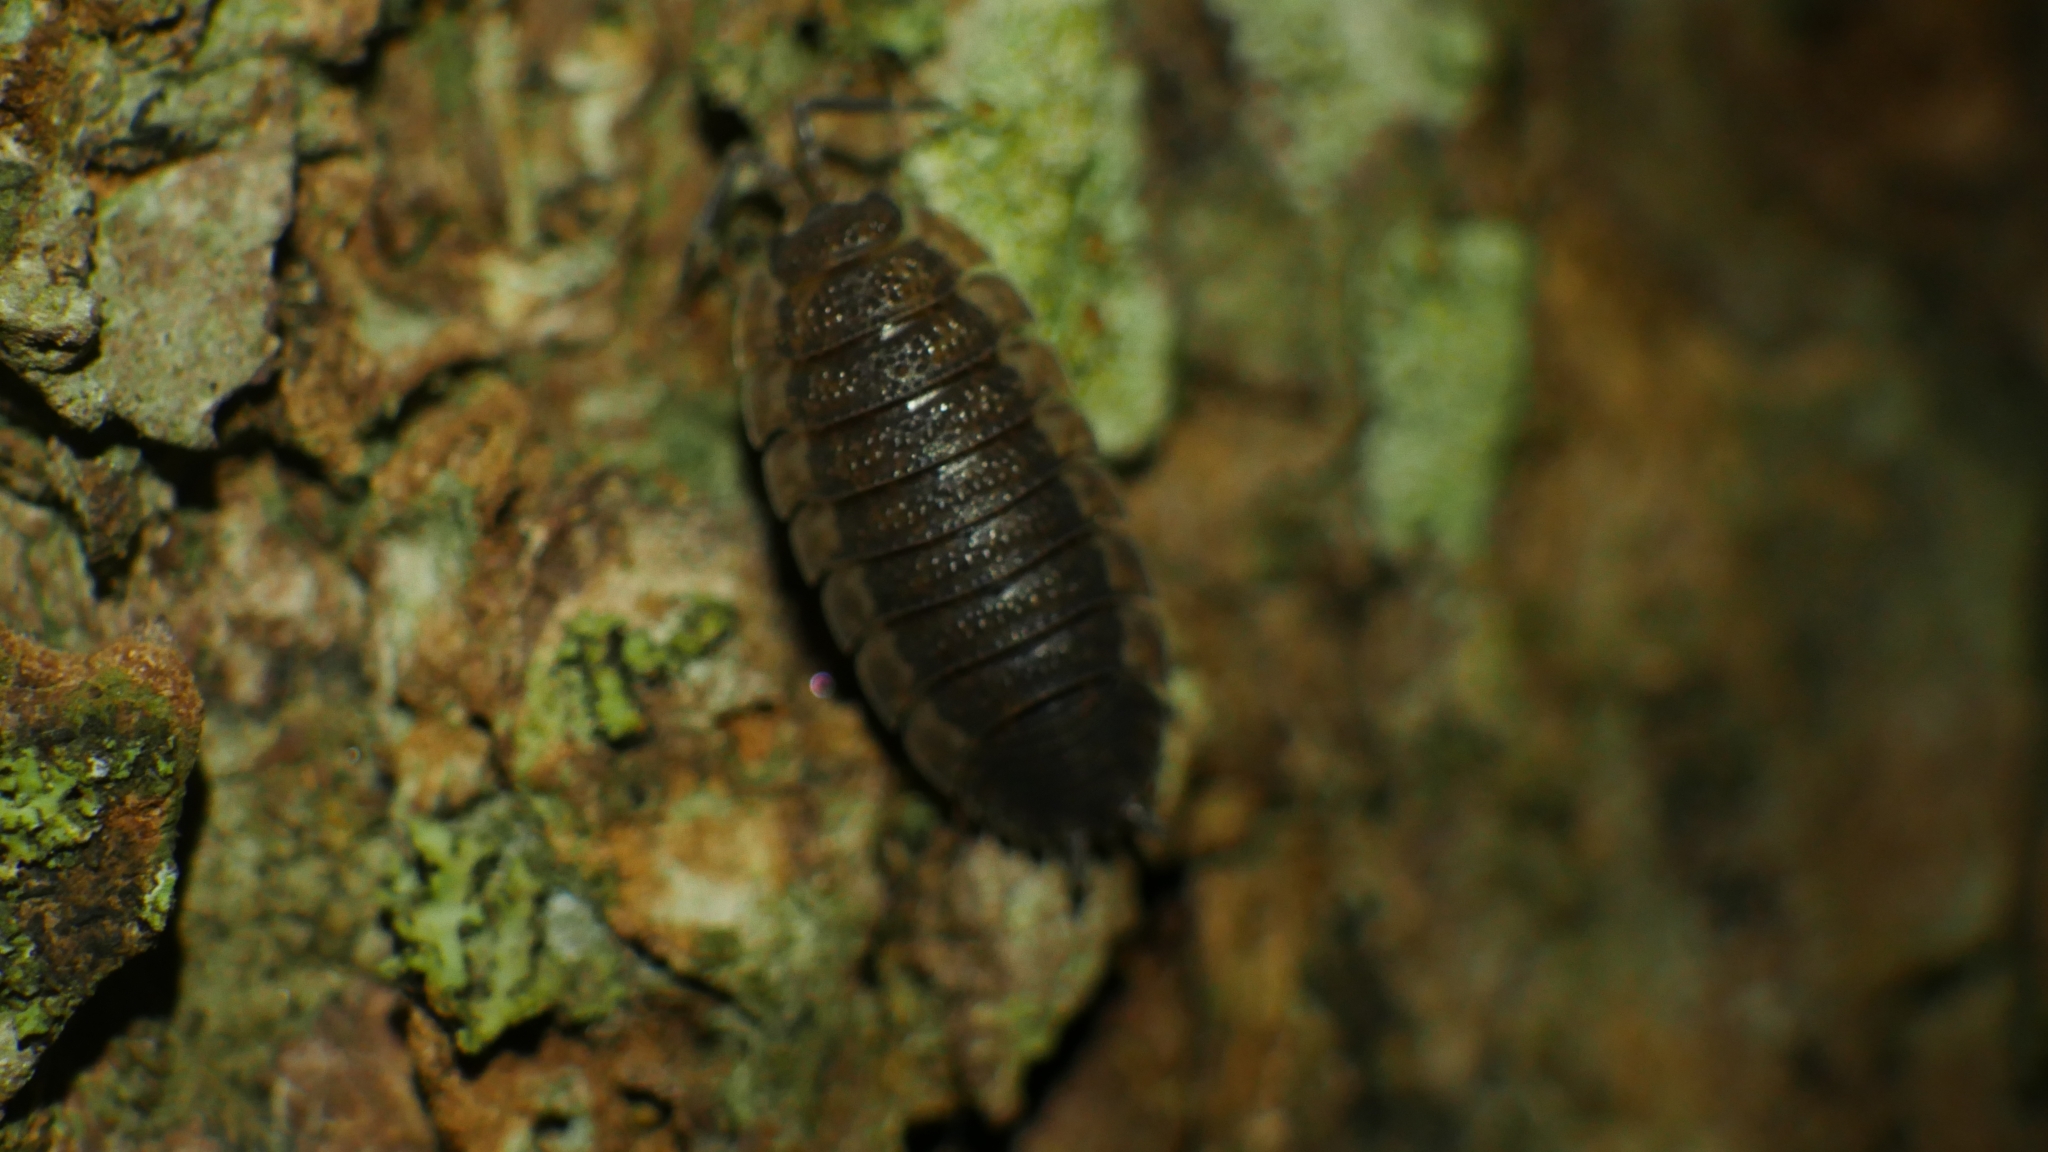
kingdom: Animalia
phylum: Arthropoda
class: Malacostraca
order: Isopoda
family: Porcellionidae
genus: Porcellio
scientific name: Porcellio scaber
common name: Common rough woodlouse
